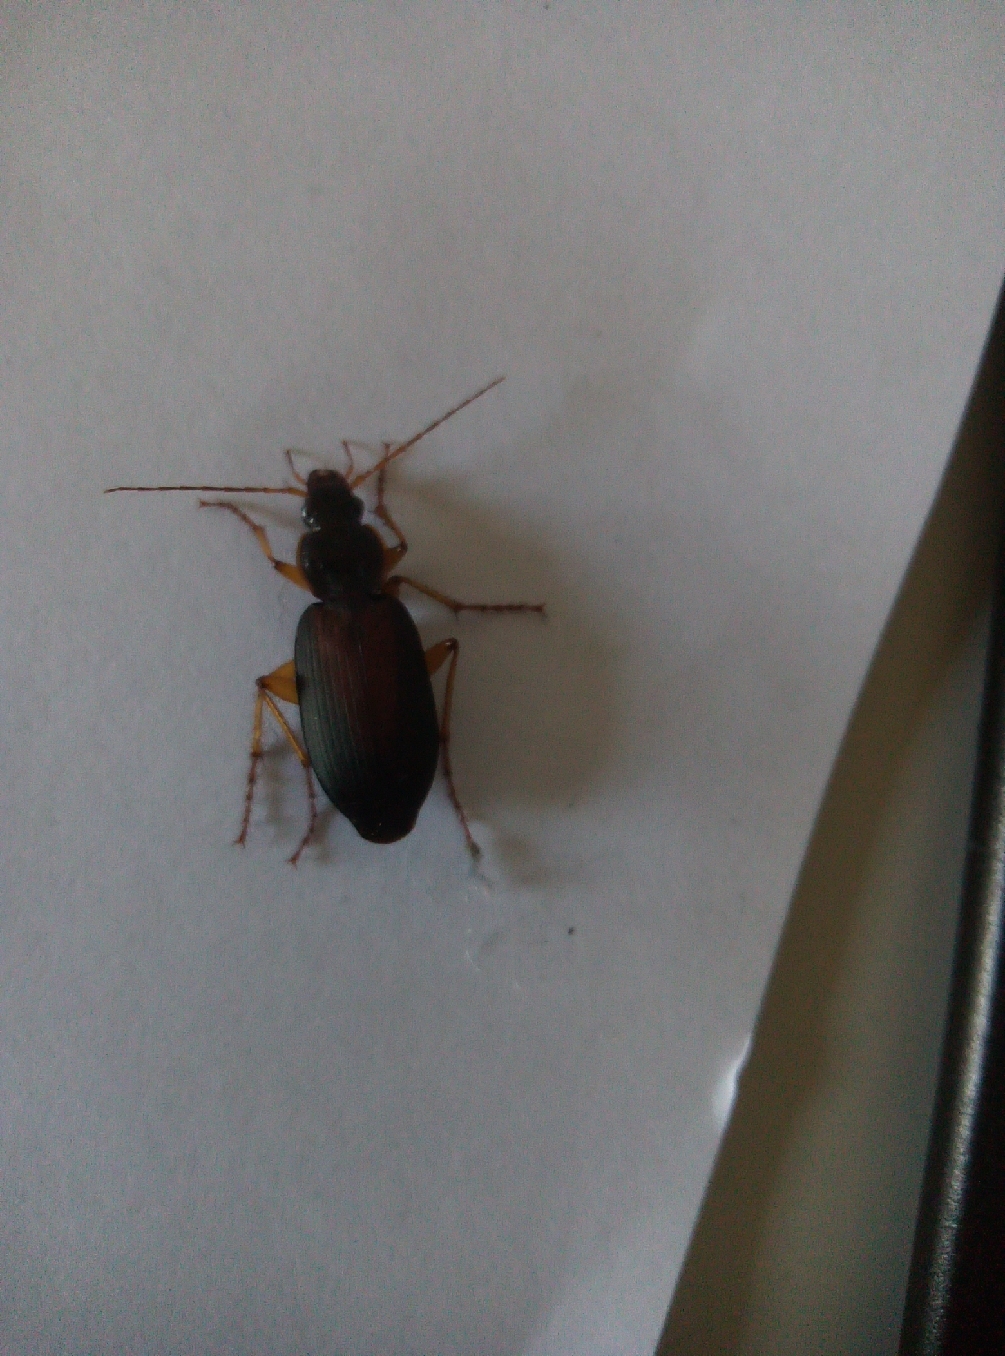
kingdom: Animalia
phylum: Arthropoda
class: Insecta
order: Coleoptera
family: Carabidae
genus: Dolichus
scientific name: Dolichus halensis
